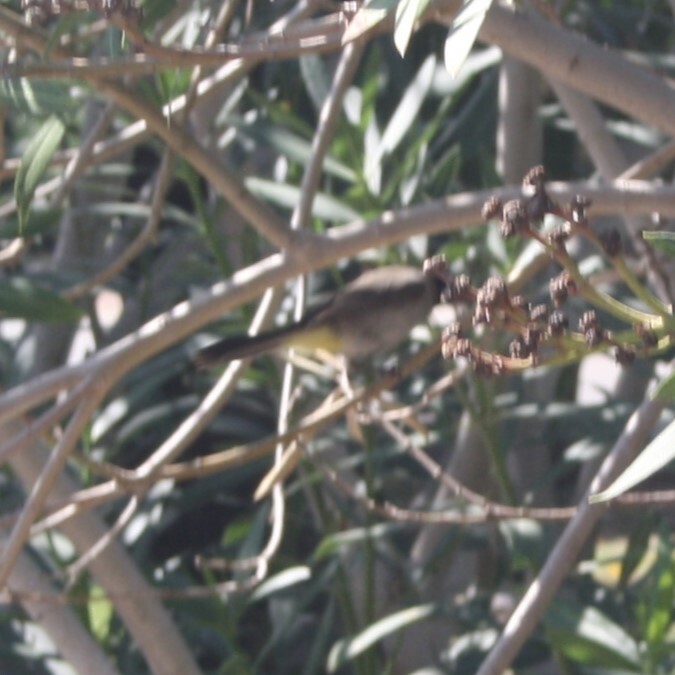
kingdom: Animalia
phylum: Chordata
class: Aves
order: Passeriformes
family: Pycnonotidae
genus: Pycnonotus
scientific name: Pycnonotus xanthopygos
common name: White-spectacled bulbul
